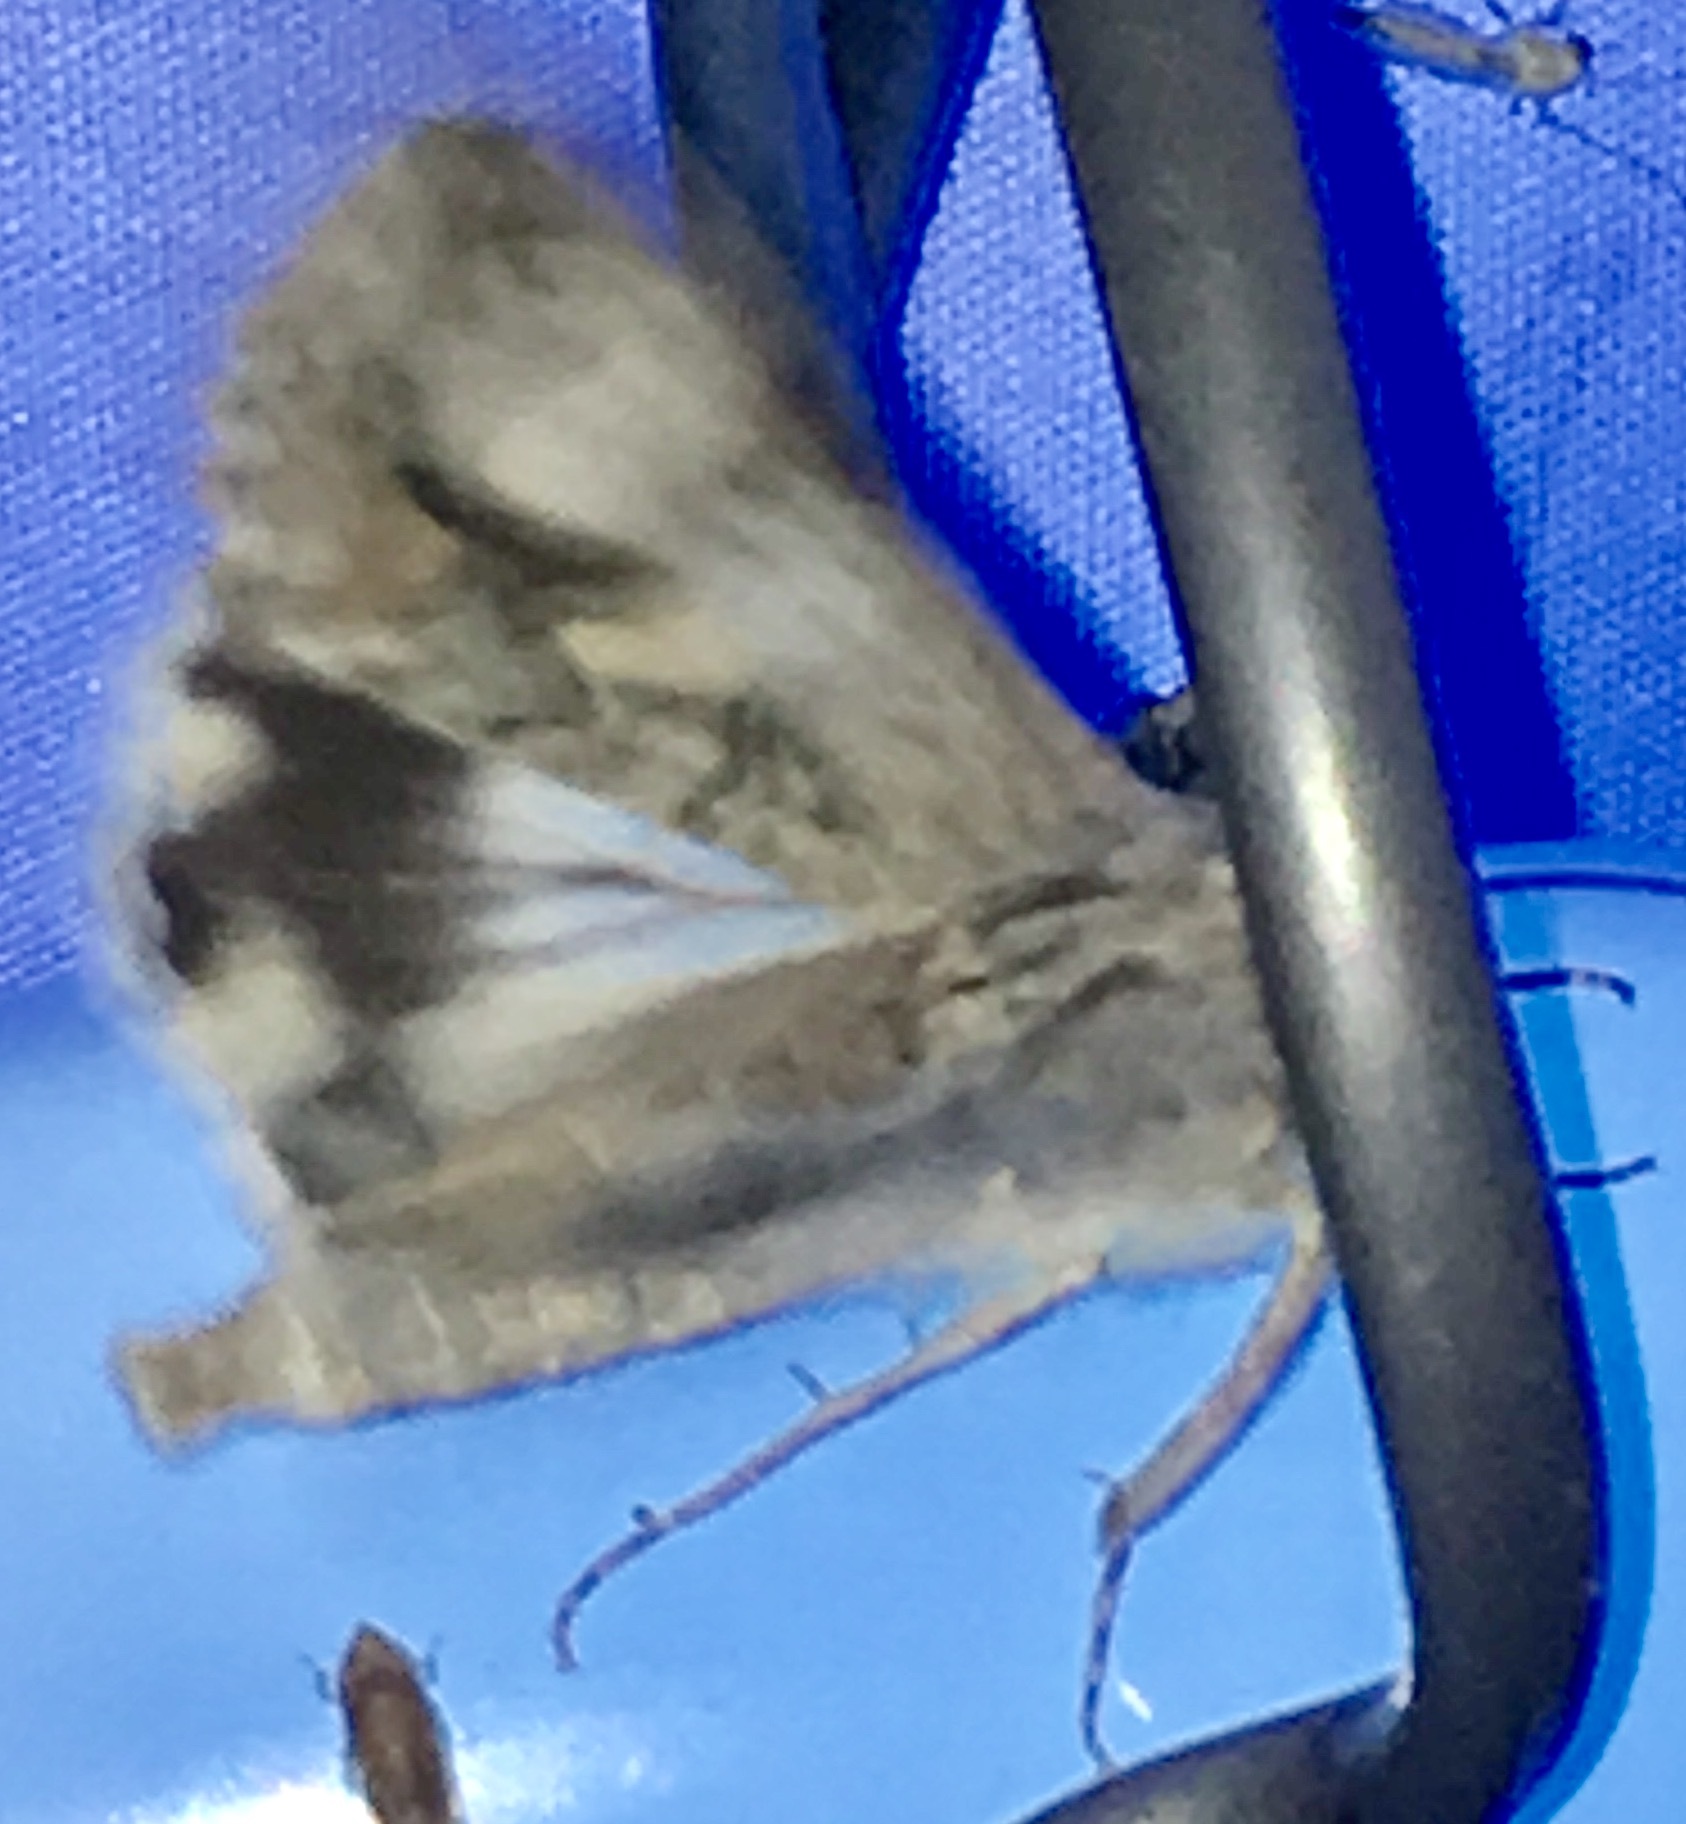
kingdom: Animalia
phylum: Arthropoda
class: Insecta
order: Lepidoptera
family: Erebidae
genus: Melipotis
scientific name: Melipotis jucunda
